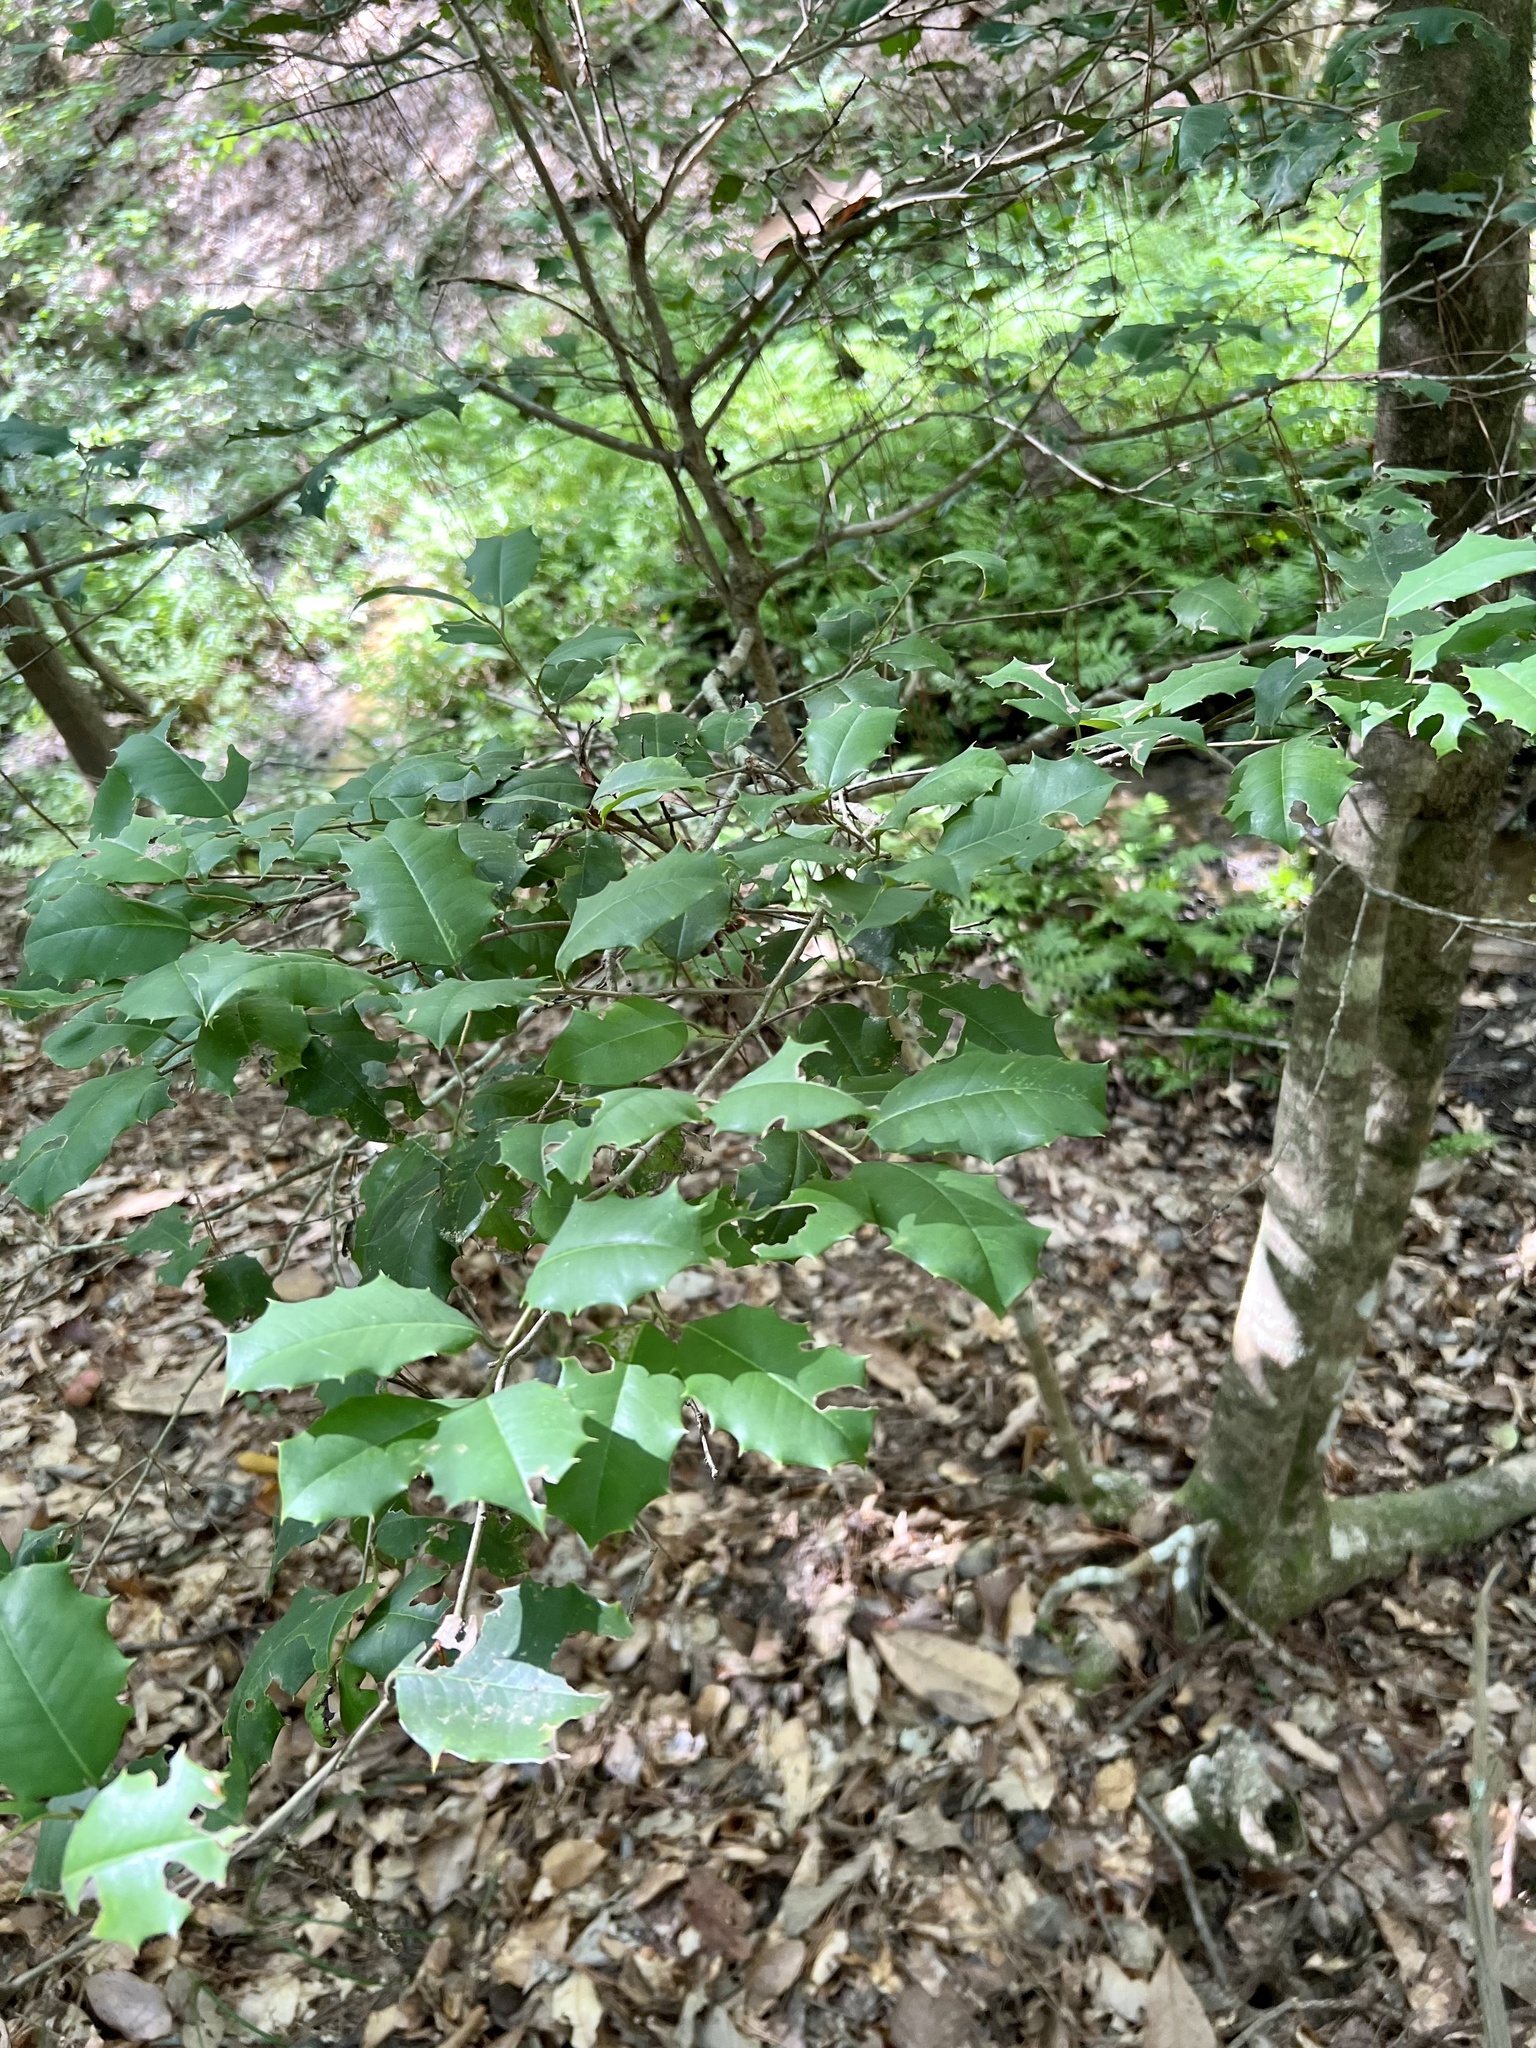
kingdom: Plantae
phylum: Tracheophyta
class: Magnoliopsida
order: Aquifoliales
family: Aquifoliaceae
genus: Ilex
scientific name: Ilex opaca
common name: American holly
